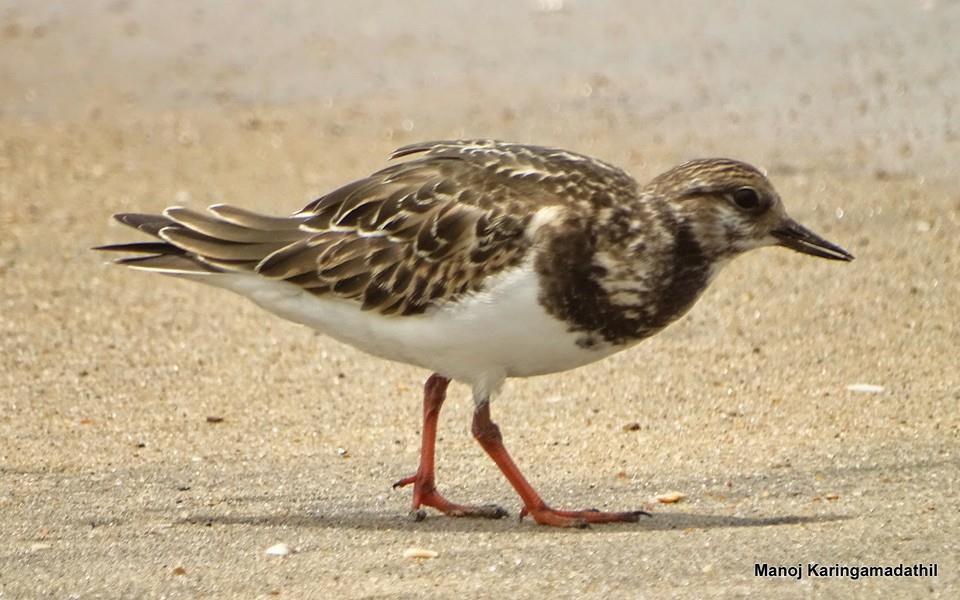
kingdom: Animalia
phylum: Chordata
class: Aves
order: Charadriiformes
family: Scolopacidae
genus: Arenaria
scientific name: Arenaria interpres
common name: Ruddy turnstone
